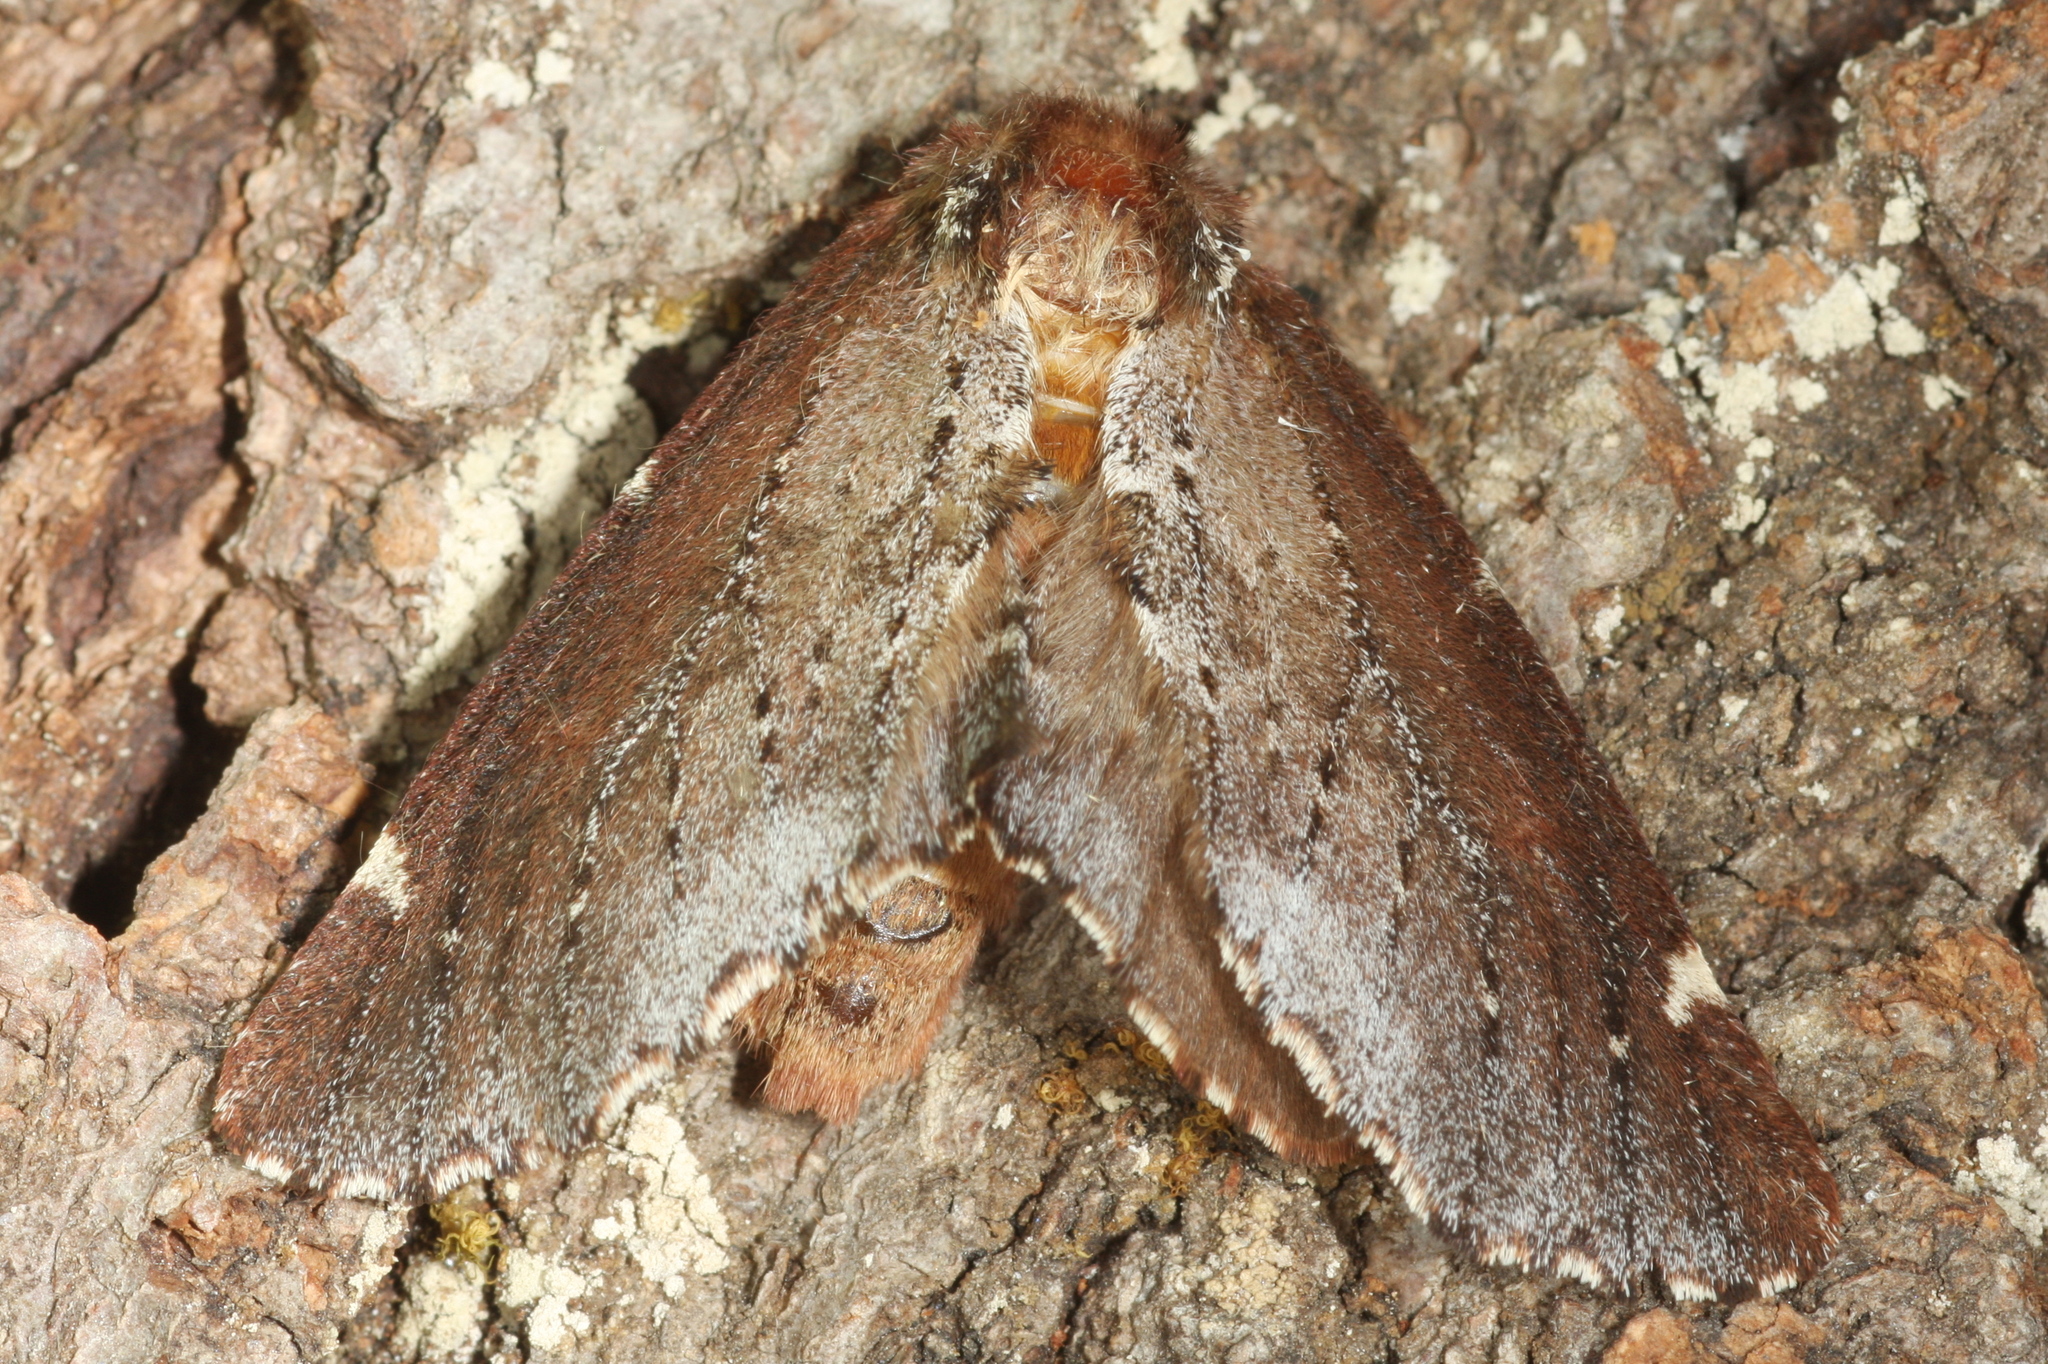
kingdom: Animalia
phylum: Arthropoda
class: Insecta
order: Lepidoptera
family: Notodontidae
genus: Odontosia
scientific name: Odontosia carmelita
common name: Scarce prominent
